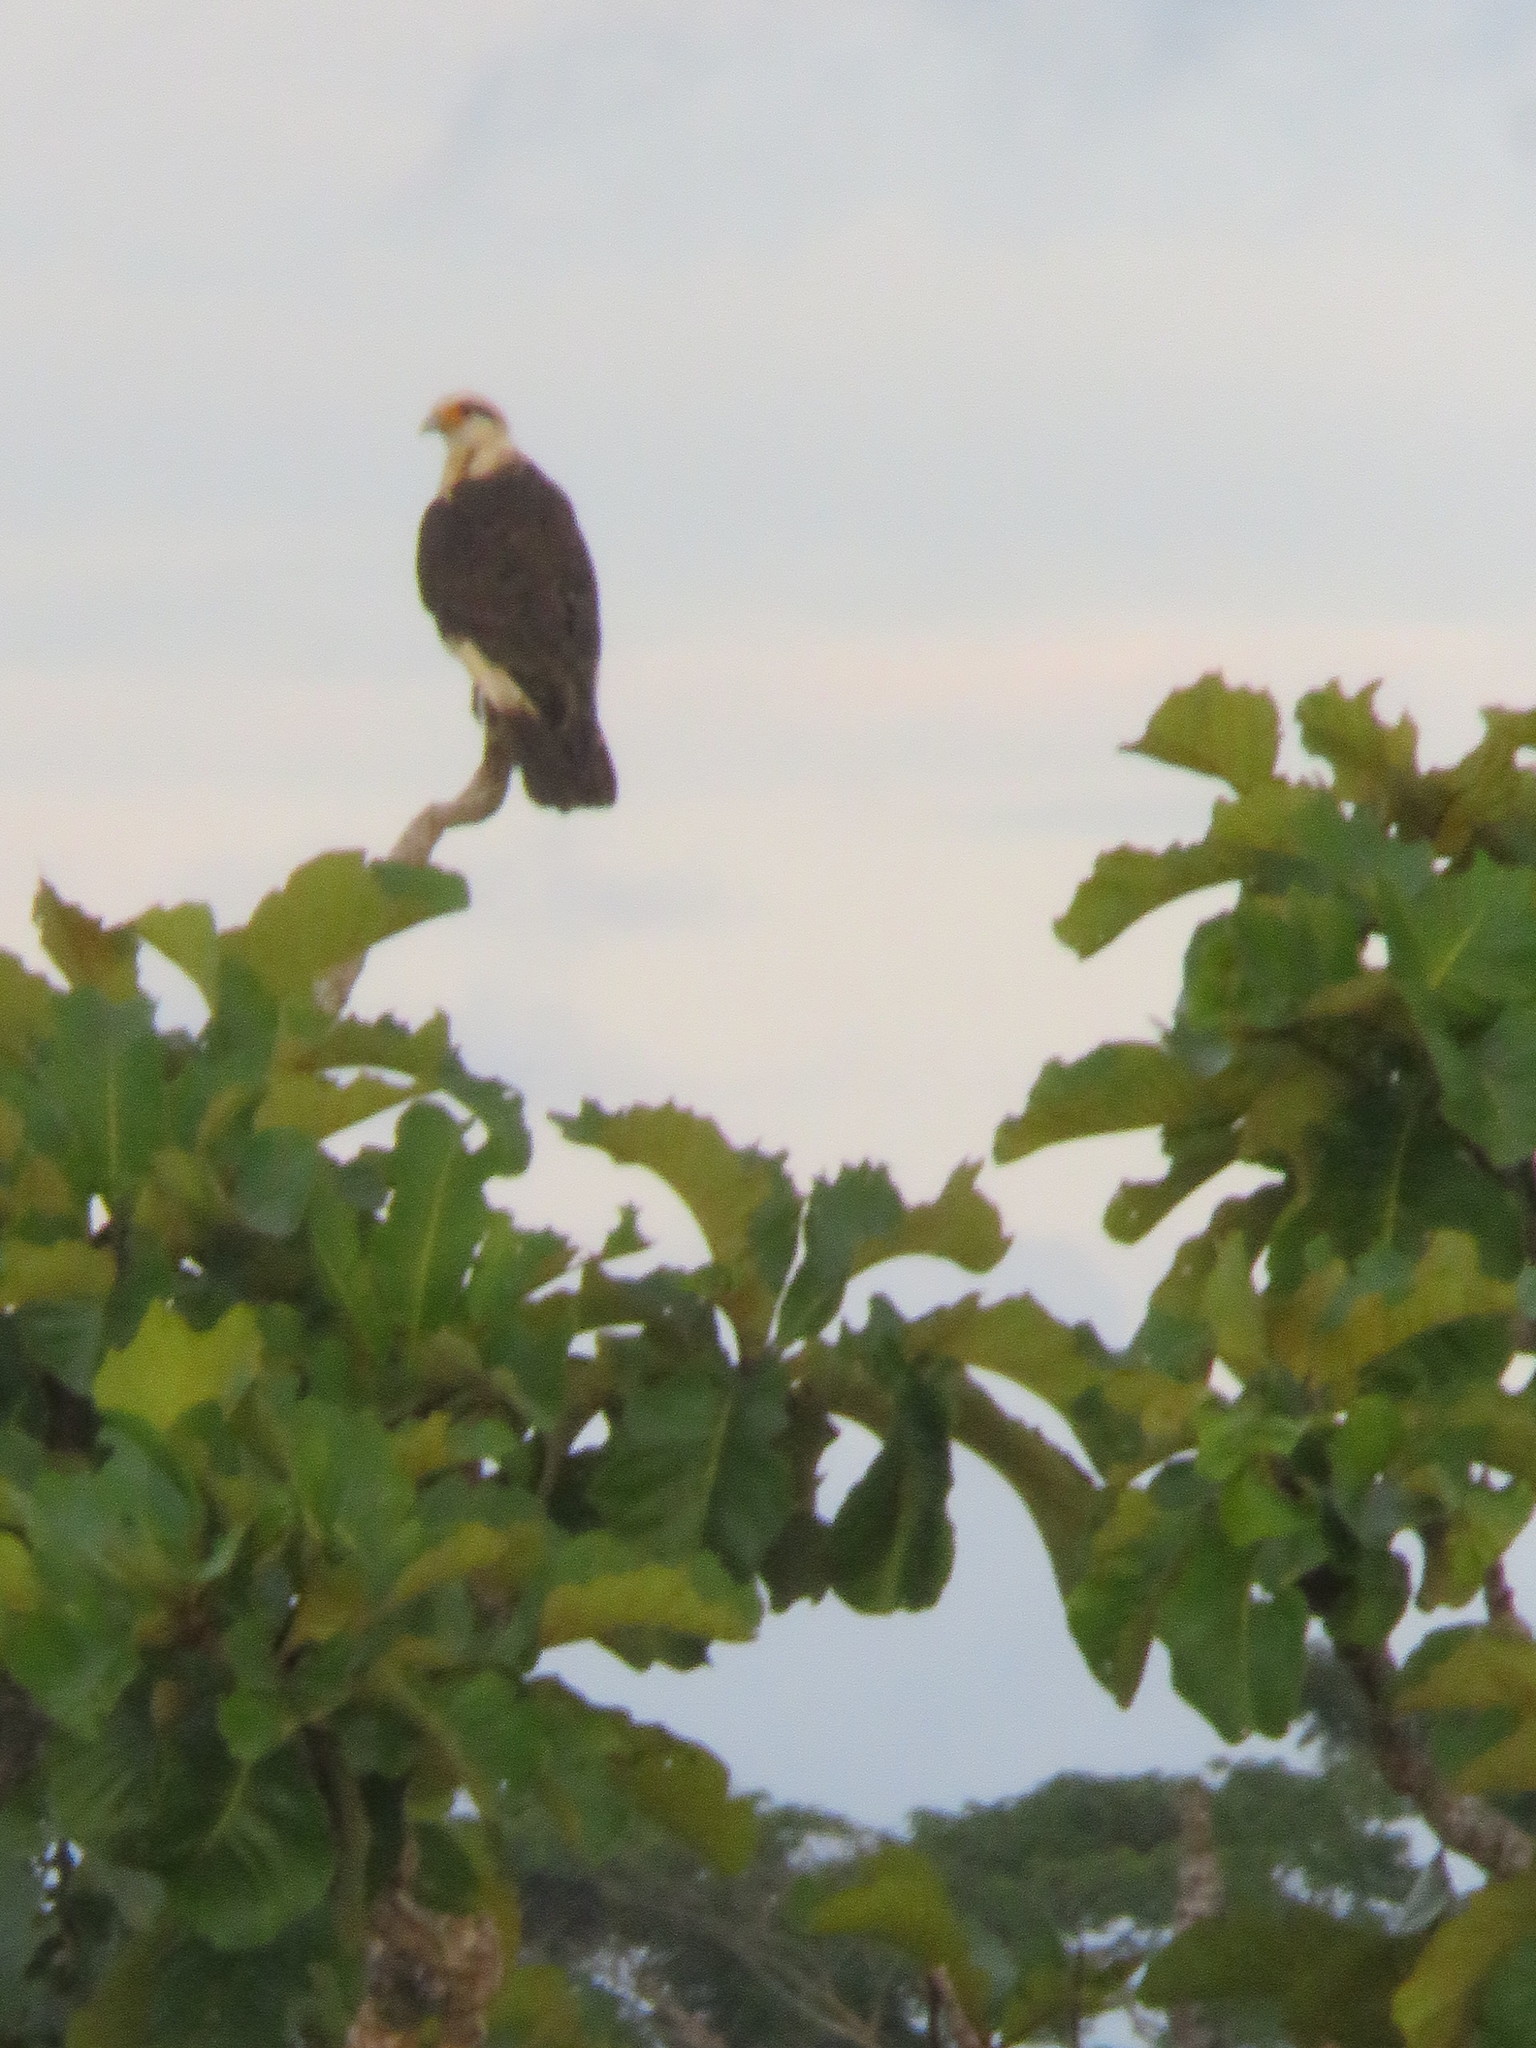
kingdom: Animalia
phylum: Chordata
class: Aves
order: Falconiformes
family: Falconidae
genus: Daptrius
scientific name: Daptrius
